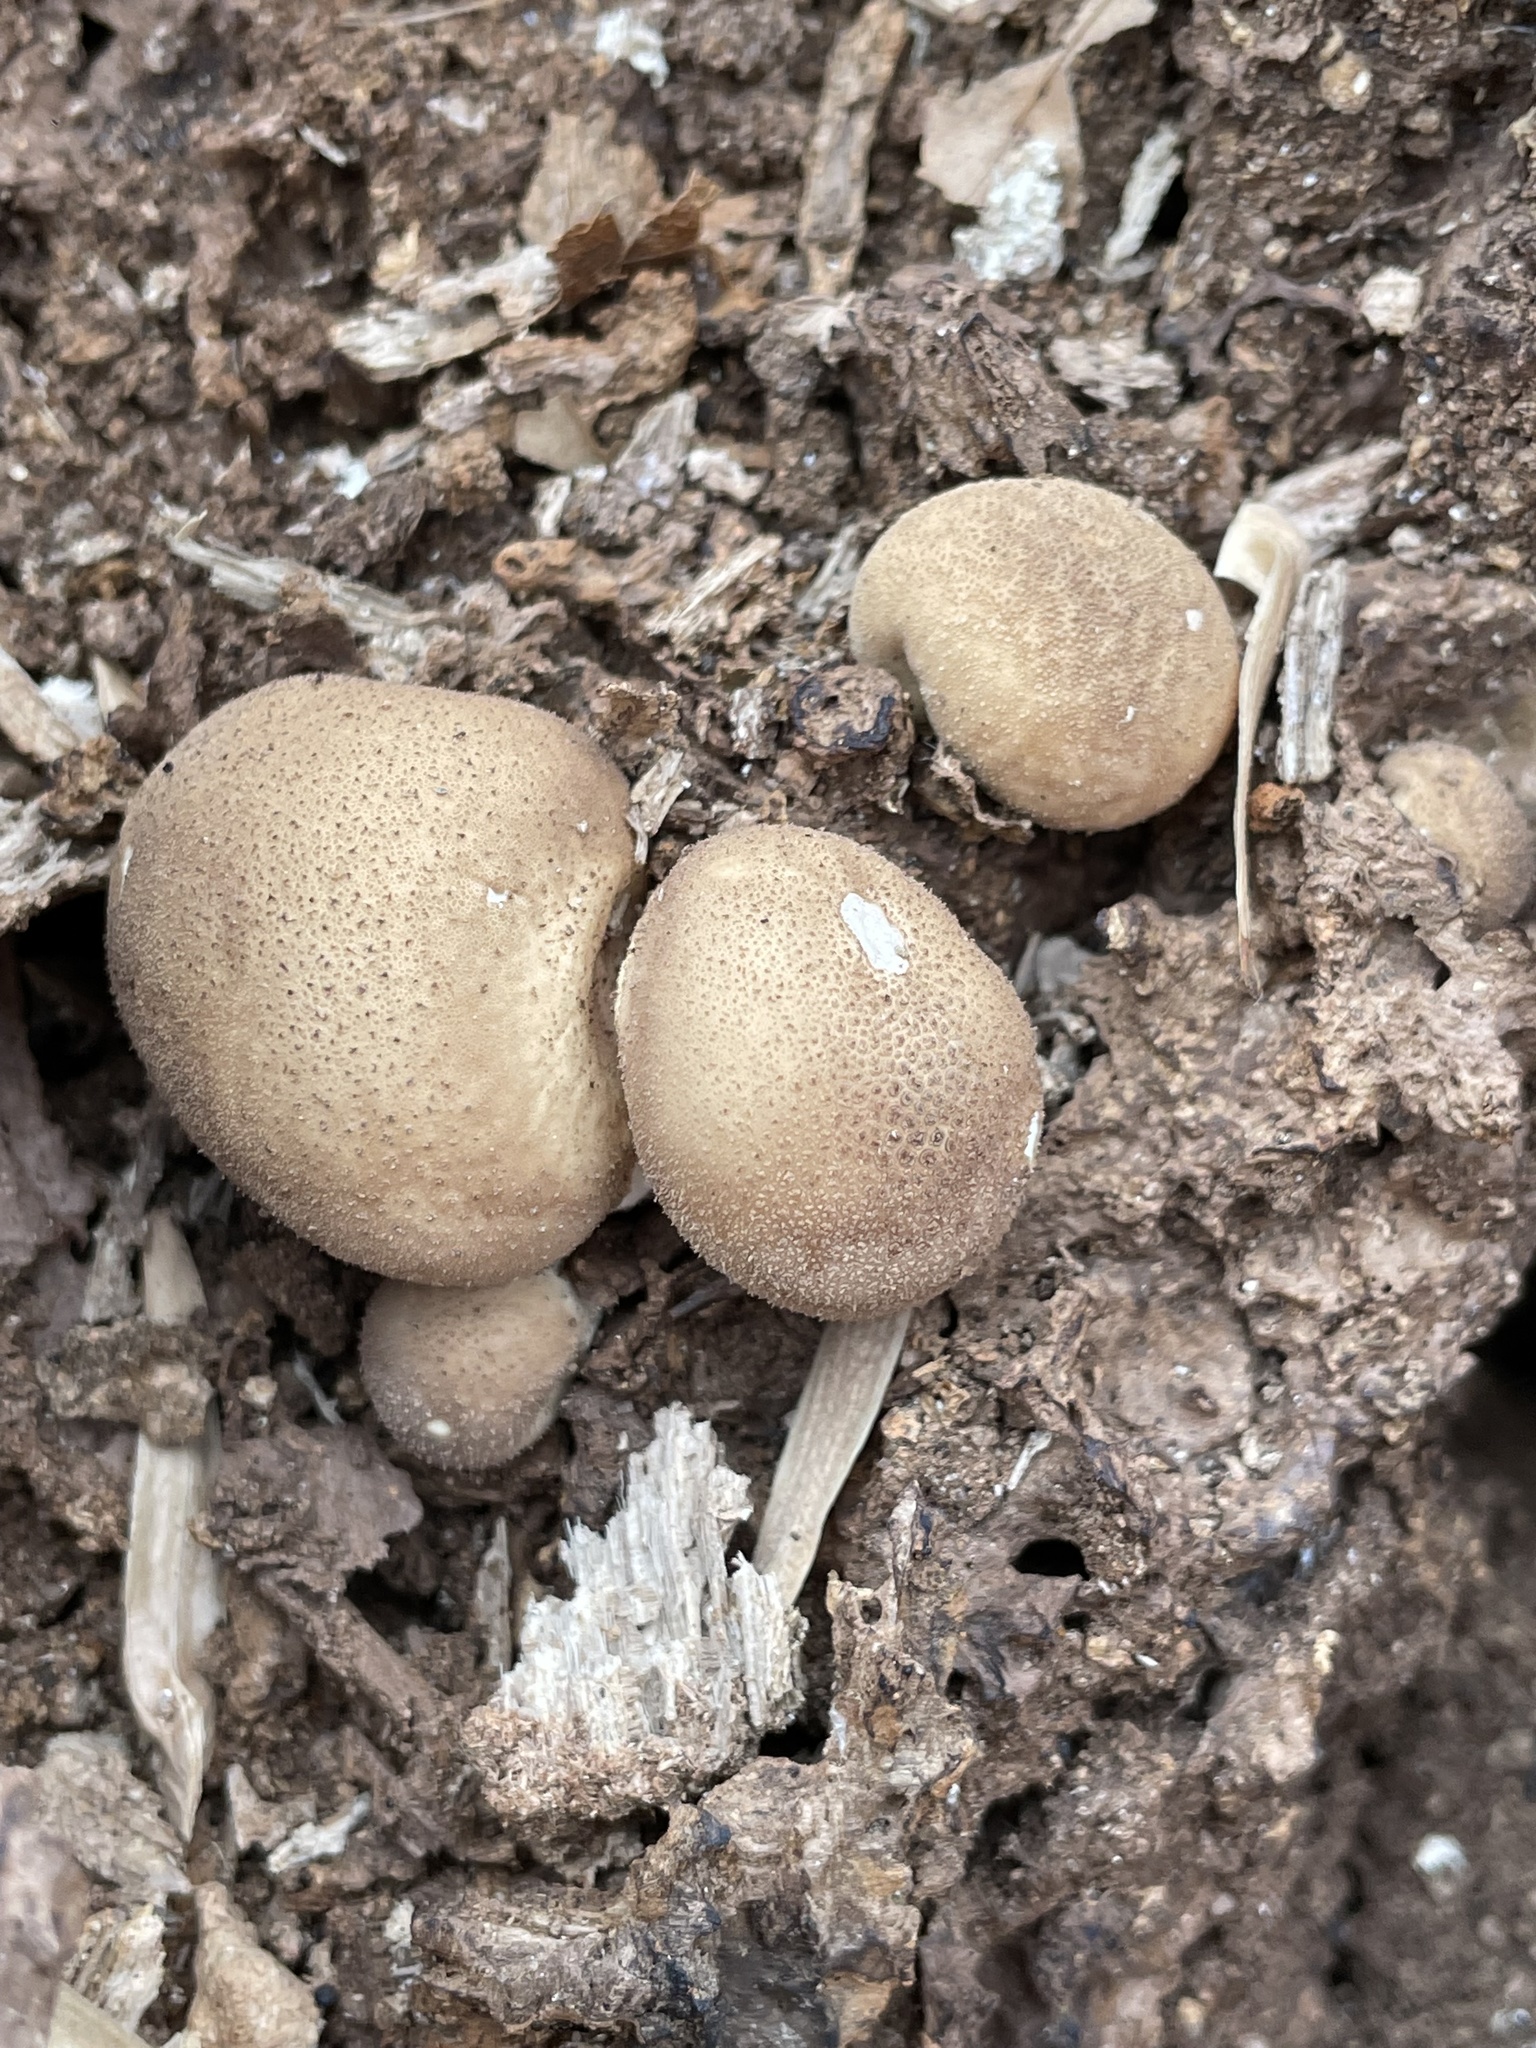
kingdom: Fungi
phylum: Basidiomycota
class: Agaricomycetes
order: Agaricales
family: Lycoperdaceae
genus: Apioperdon
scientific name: Apioperdon pyriforme
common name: Pear-shaped puffball
